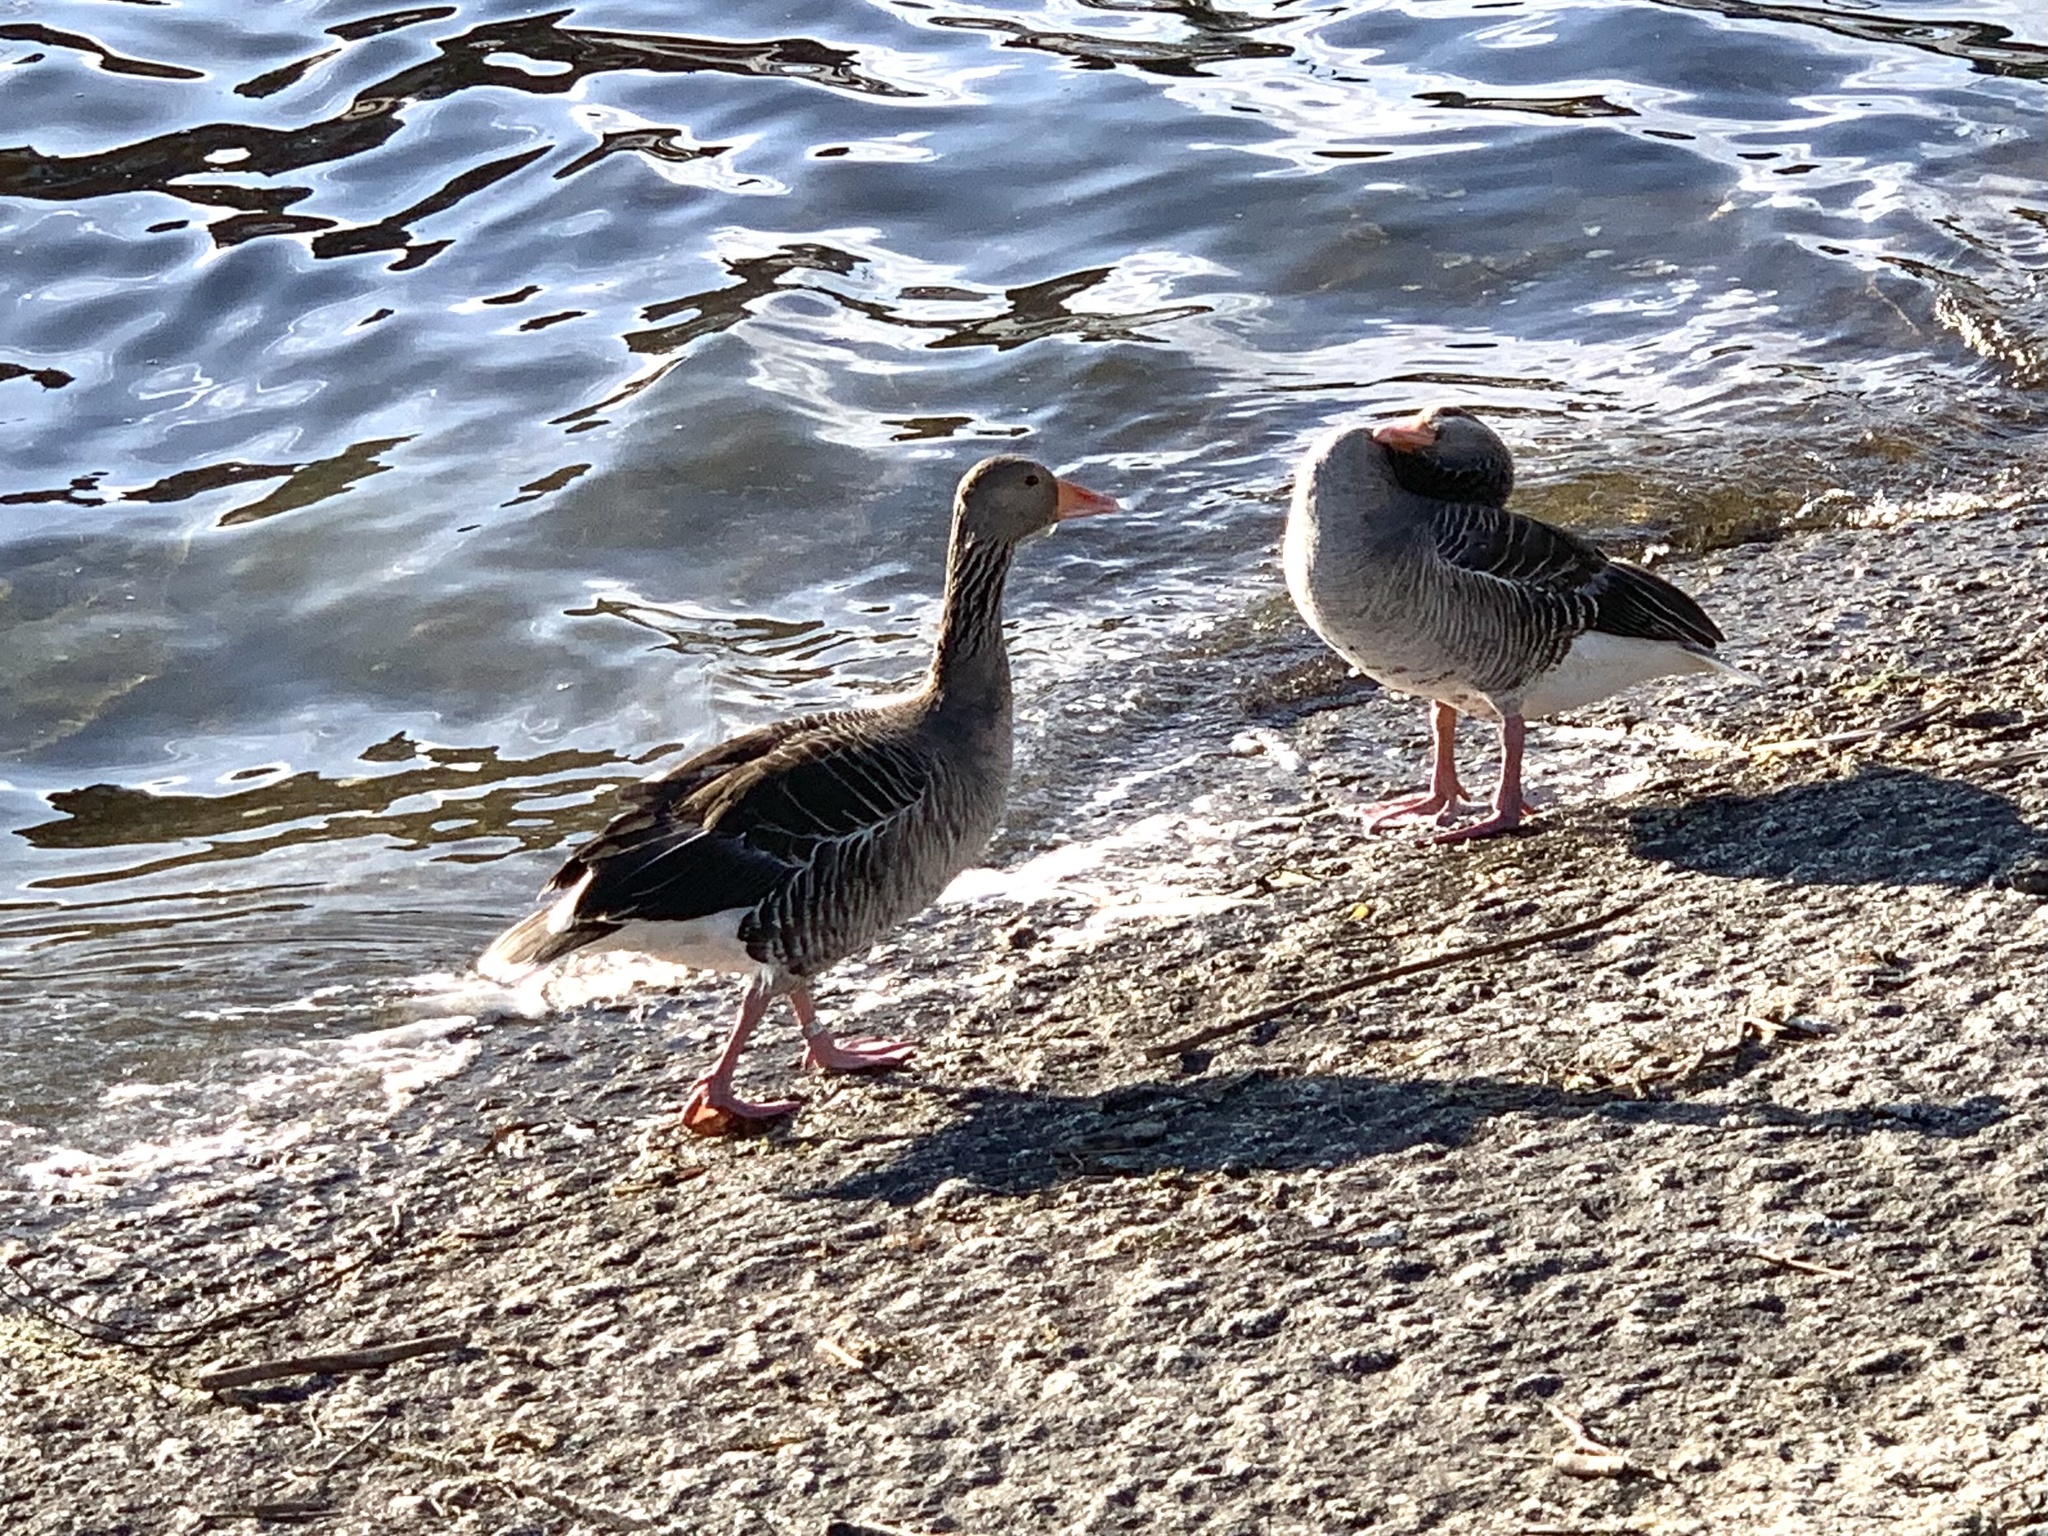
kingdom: Animalia
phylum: Chordata
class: Aves
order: Anseriformes
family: Anatidae
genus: Anser
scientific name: Anser anser
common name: Greylag goose
